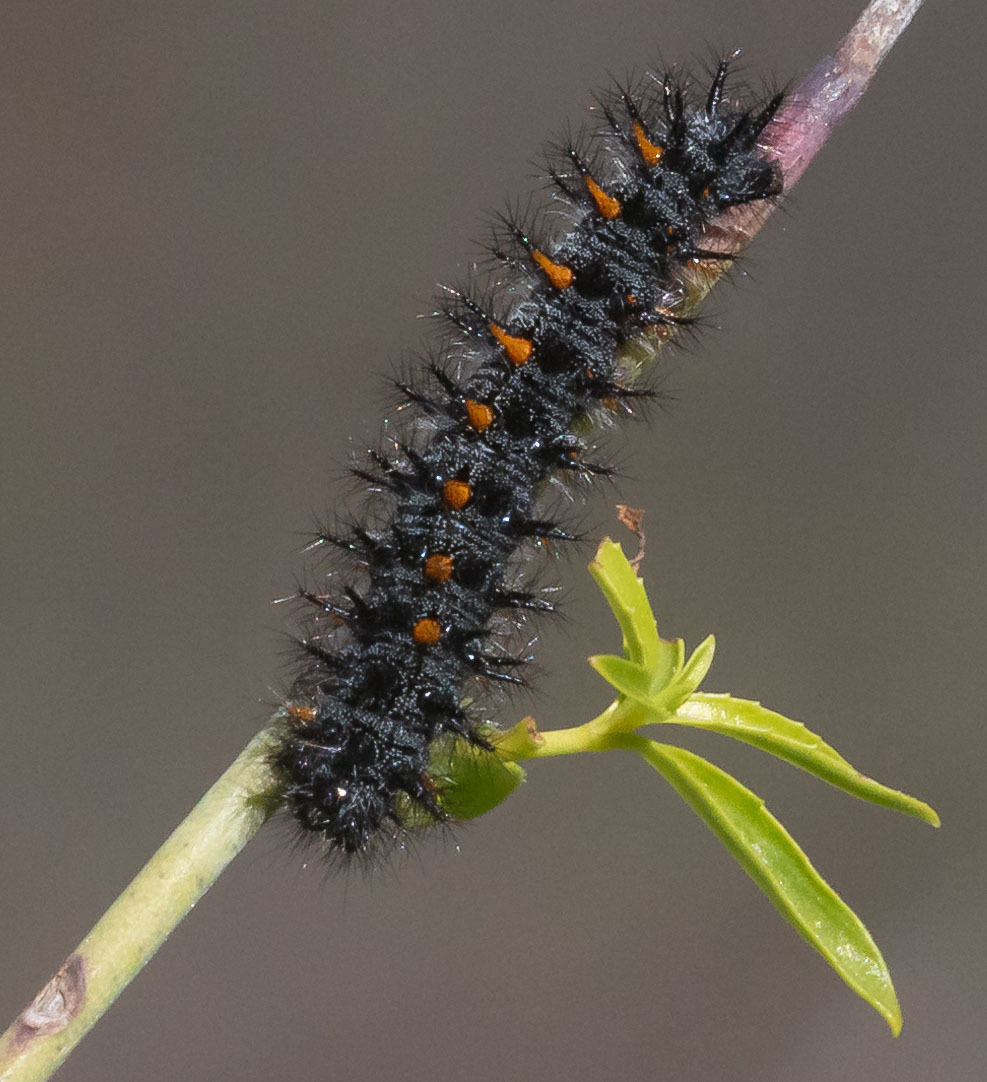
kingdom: Animalia
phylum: Arthropoda
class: Insecta
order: Lepidoptera
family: Nymphalidae
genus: Occidryas
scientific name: Occidryas chalcedona
